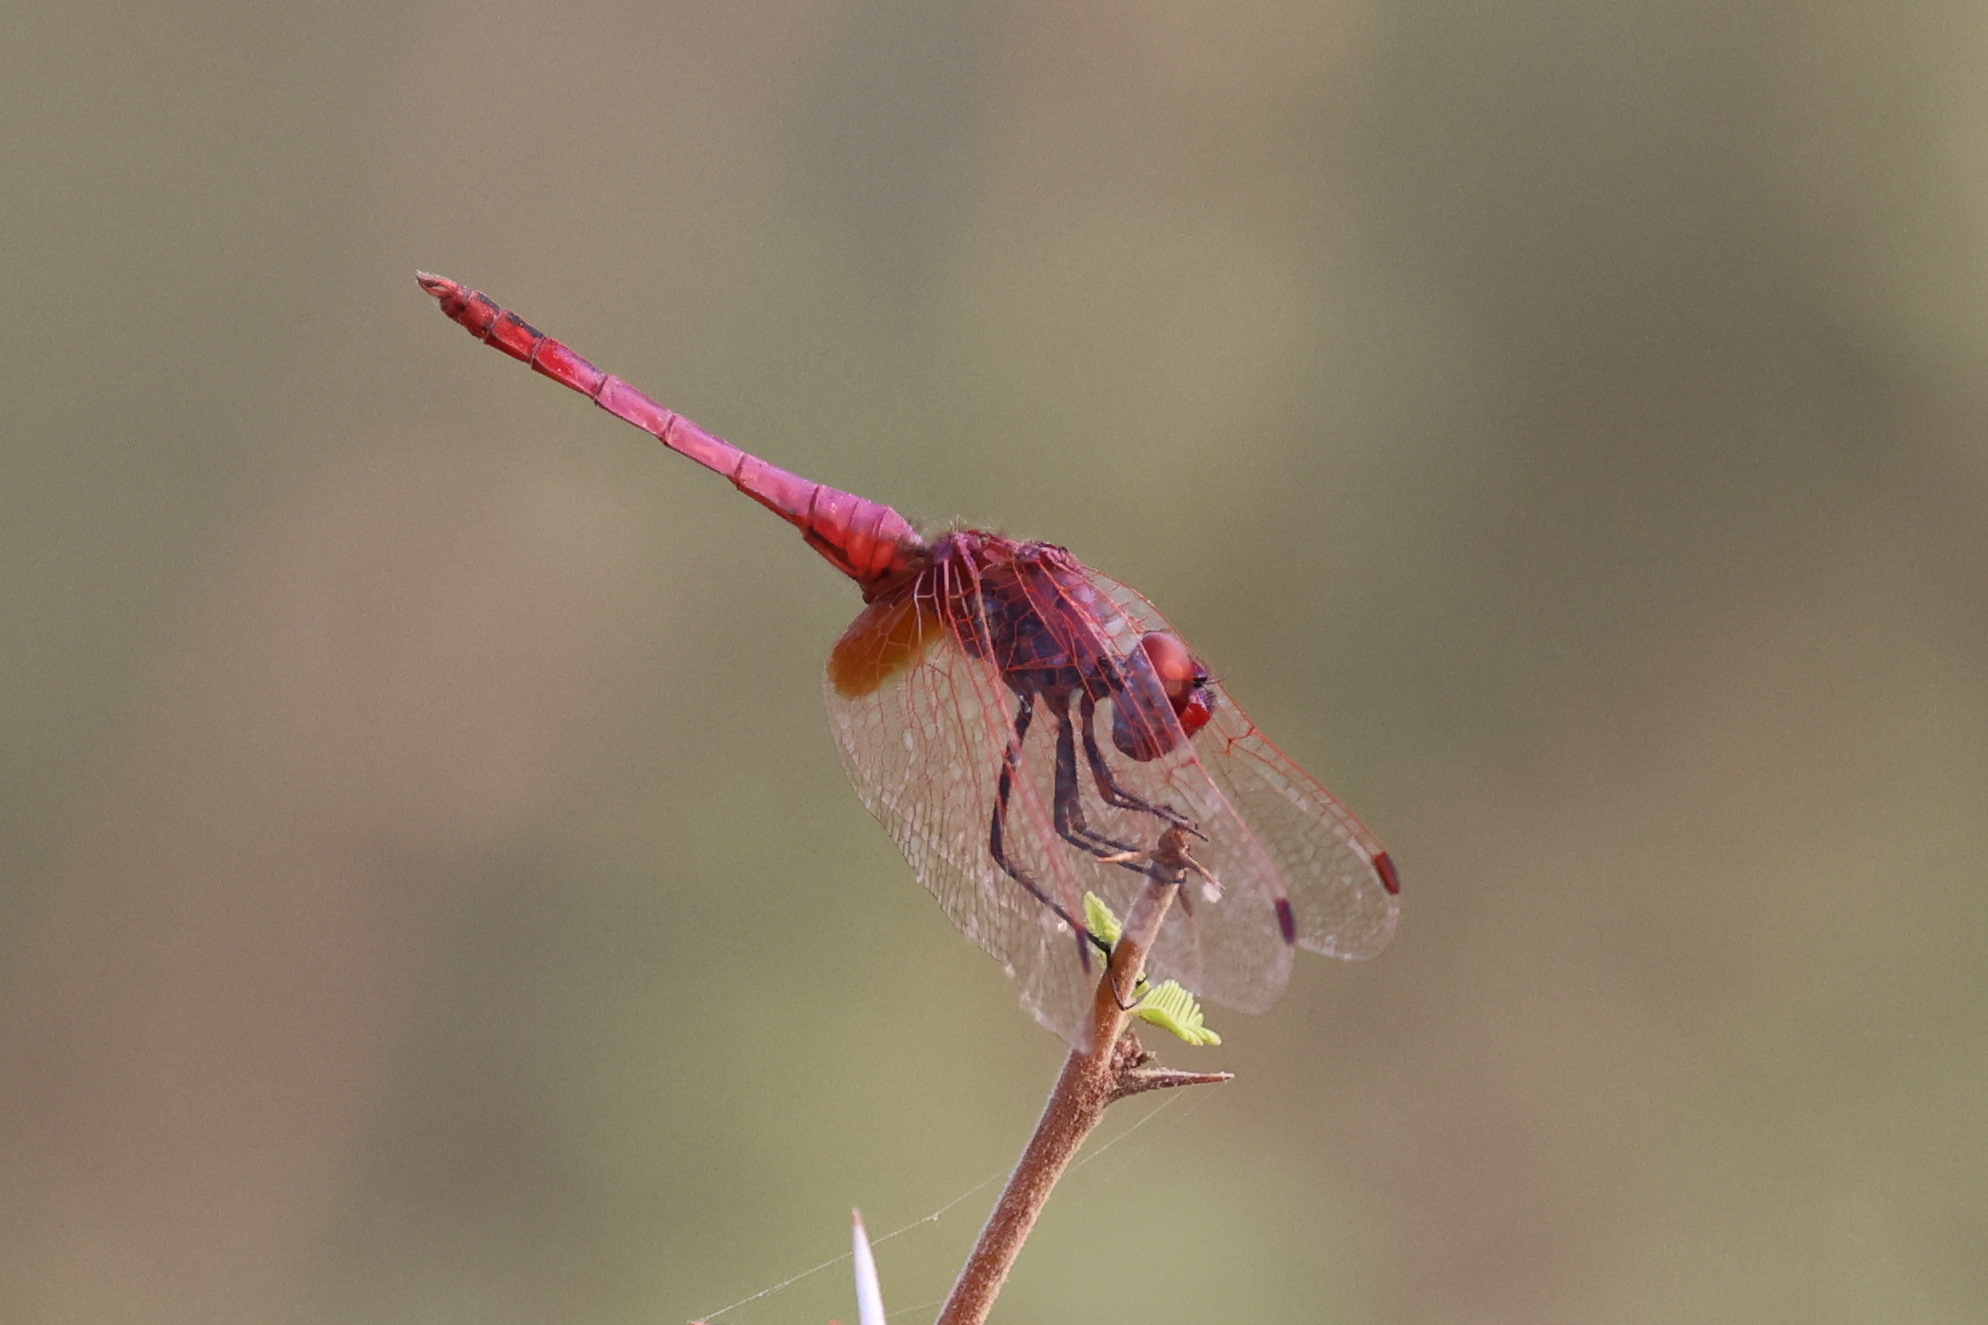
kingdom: Animalia
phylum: Arthropoda
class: Insecta
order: Odonata
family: Libellulidae
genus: Trithemis
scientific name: Trithemis annulata
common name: Violet dropwing
